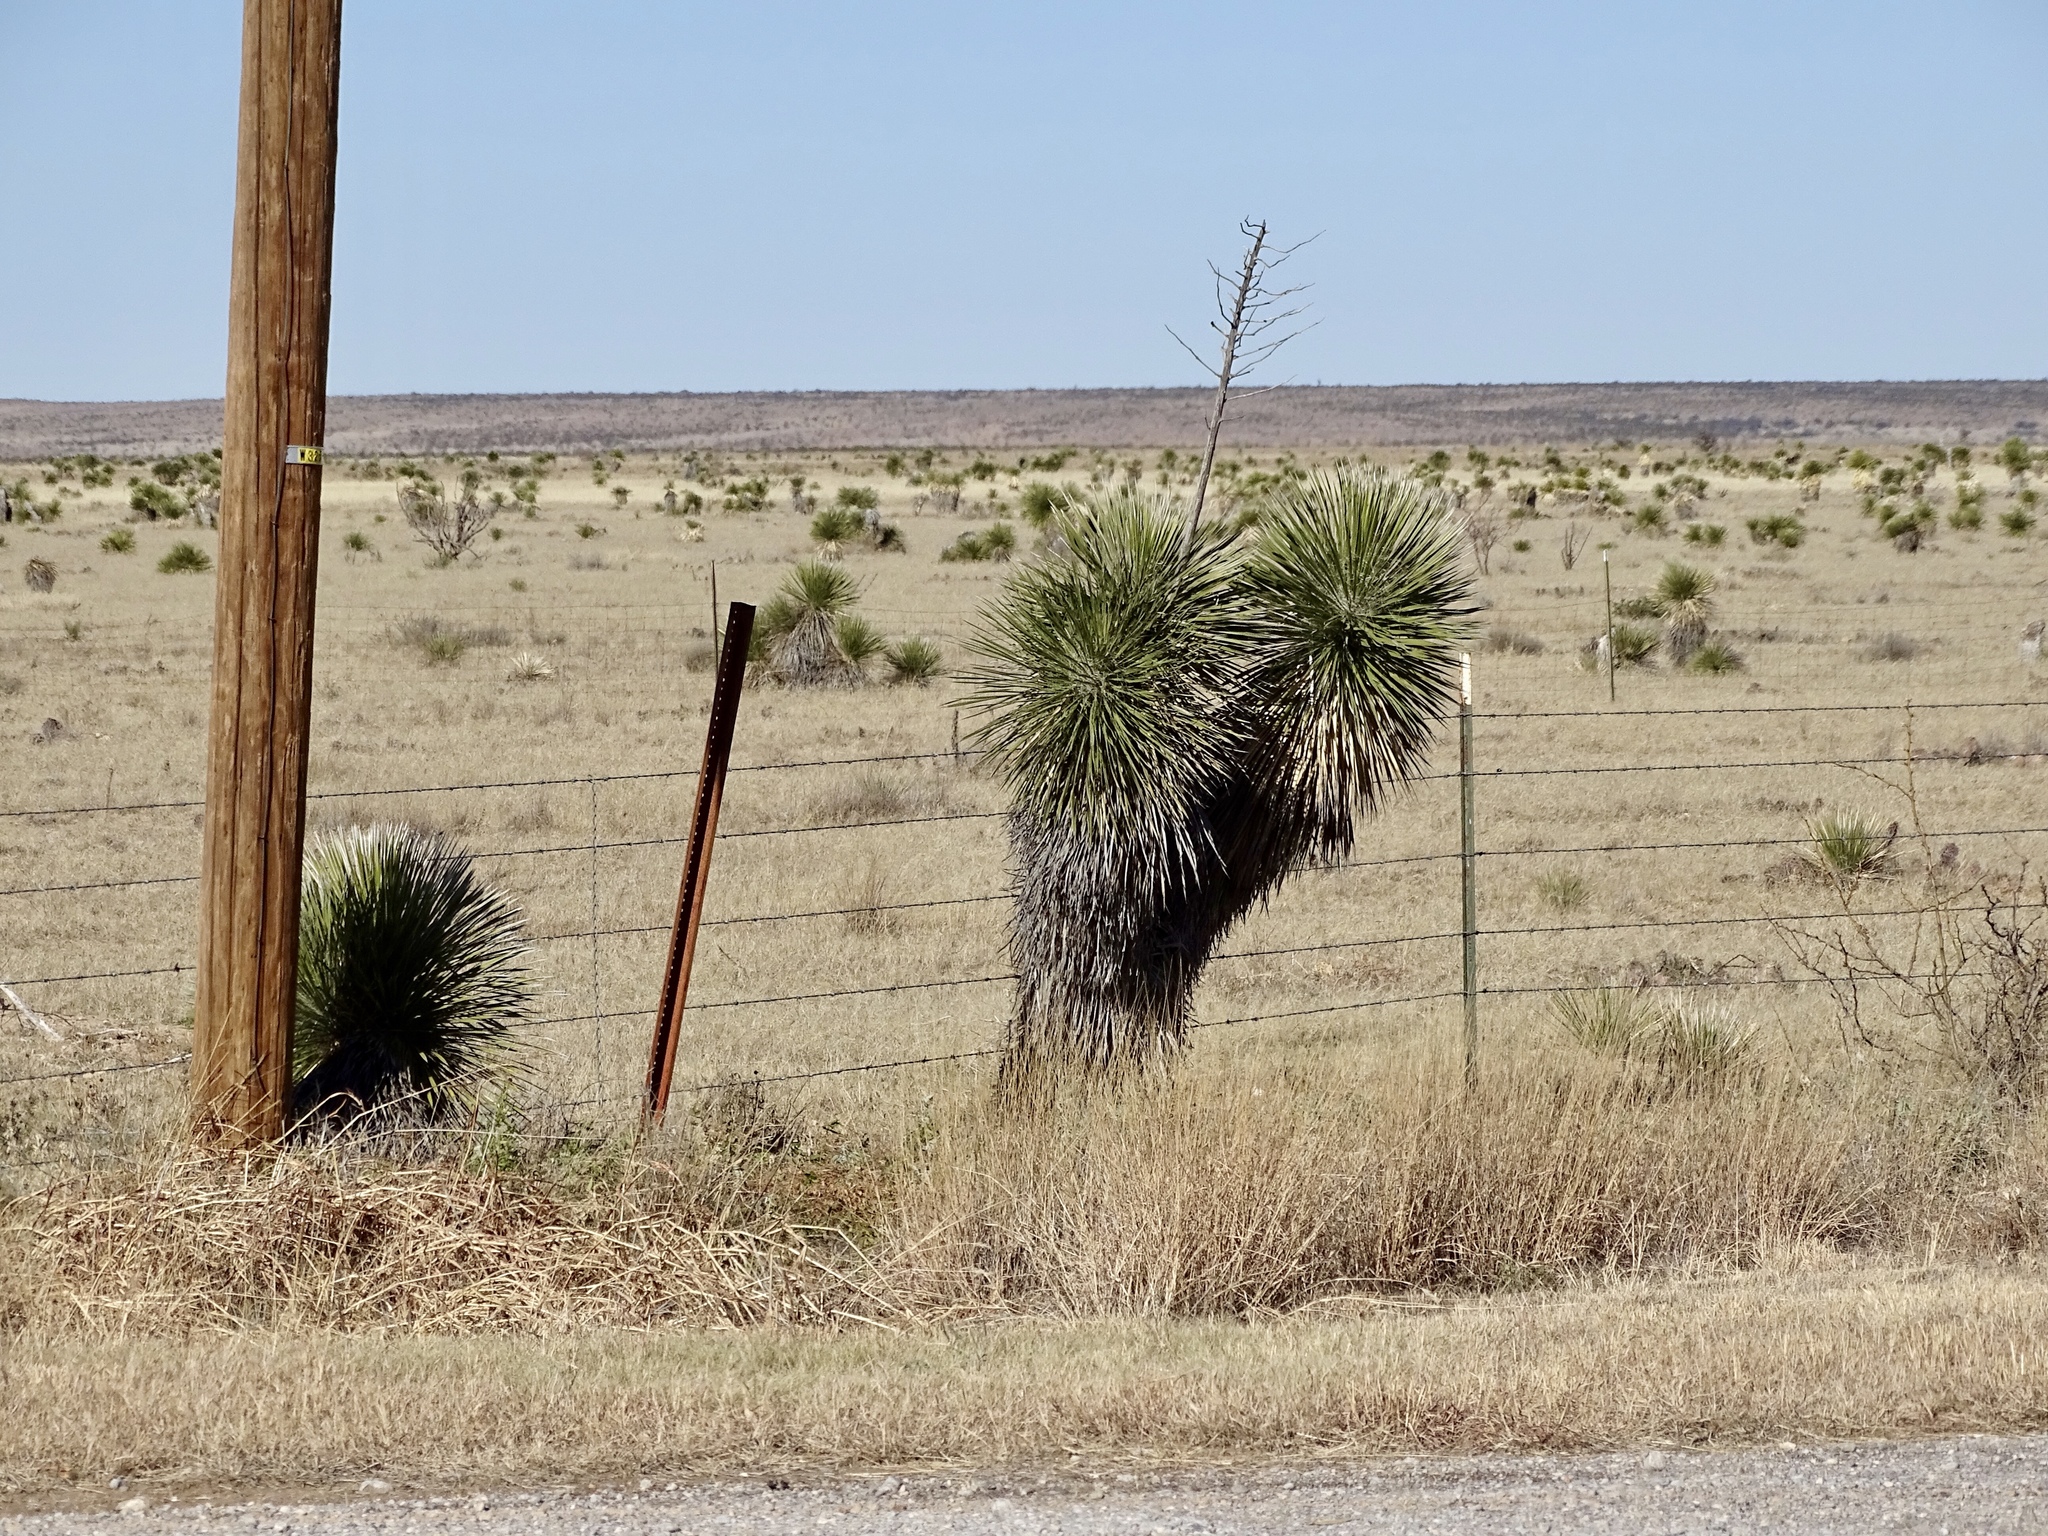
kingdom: Plantae
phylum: Tracheophyta
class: Liliopsida
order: Asparagales
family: Asparagaceae
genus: Yucca
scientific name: Yucca elata
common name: Palmella
